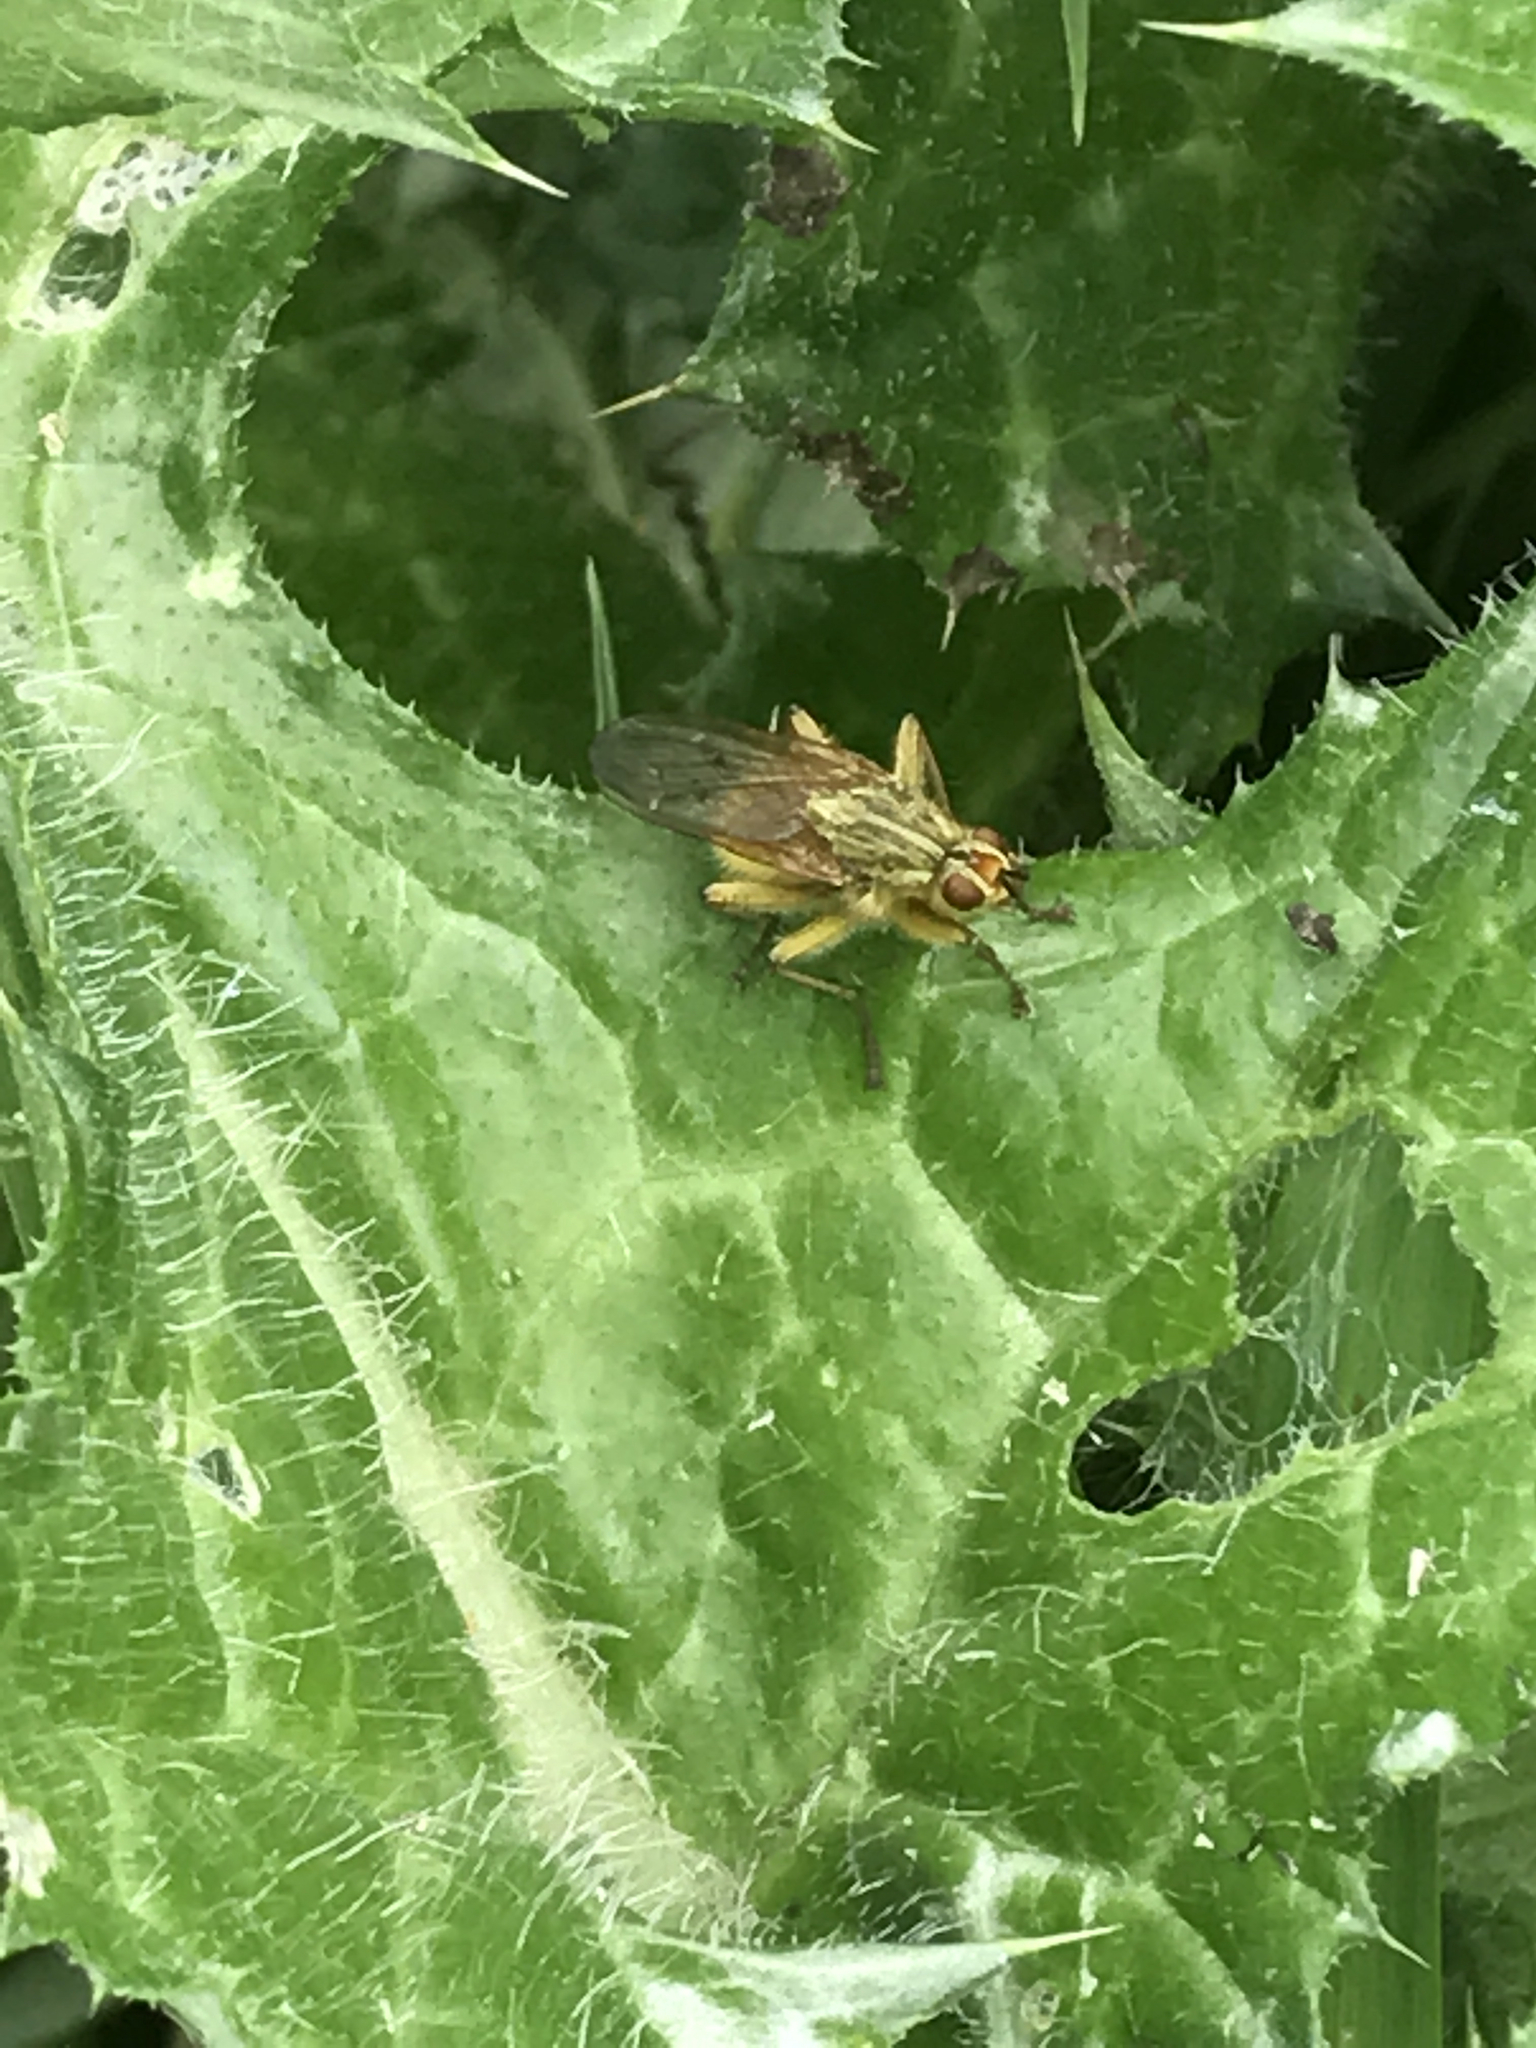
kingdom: Animalia
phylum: Arthropoda
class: Insecta
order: Diptera
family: Scathophagidae
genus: Scathophaga
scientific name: Scathophaga stercoraria
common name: Yellow dung fly
